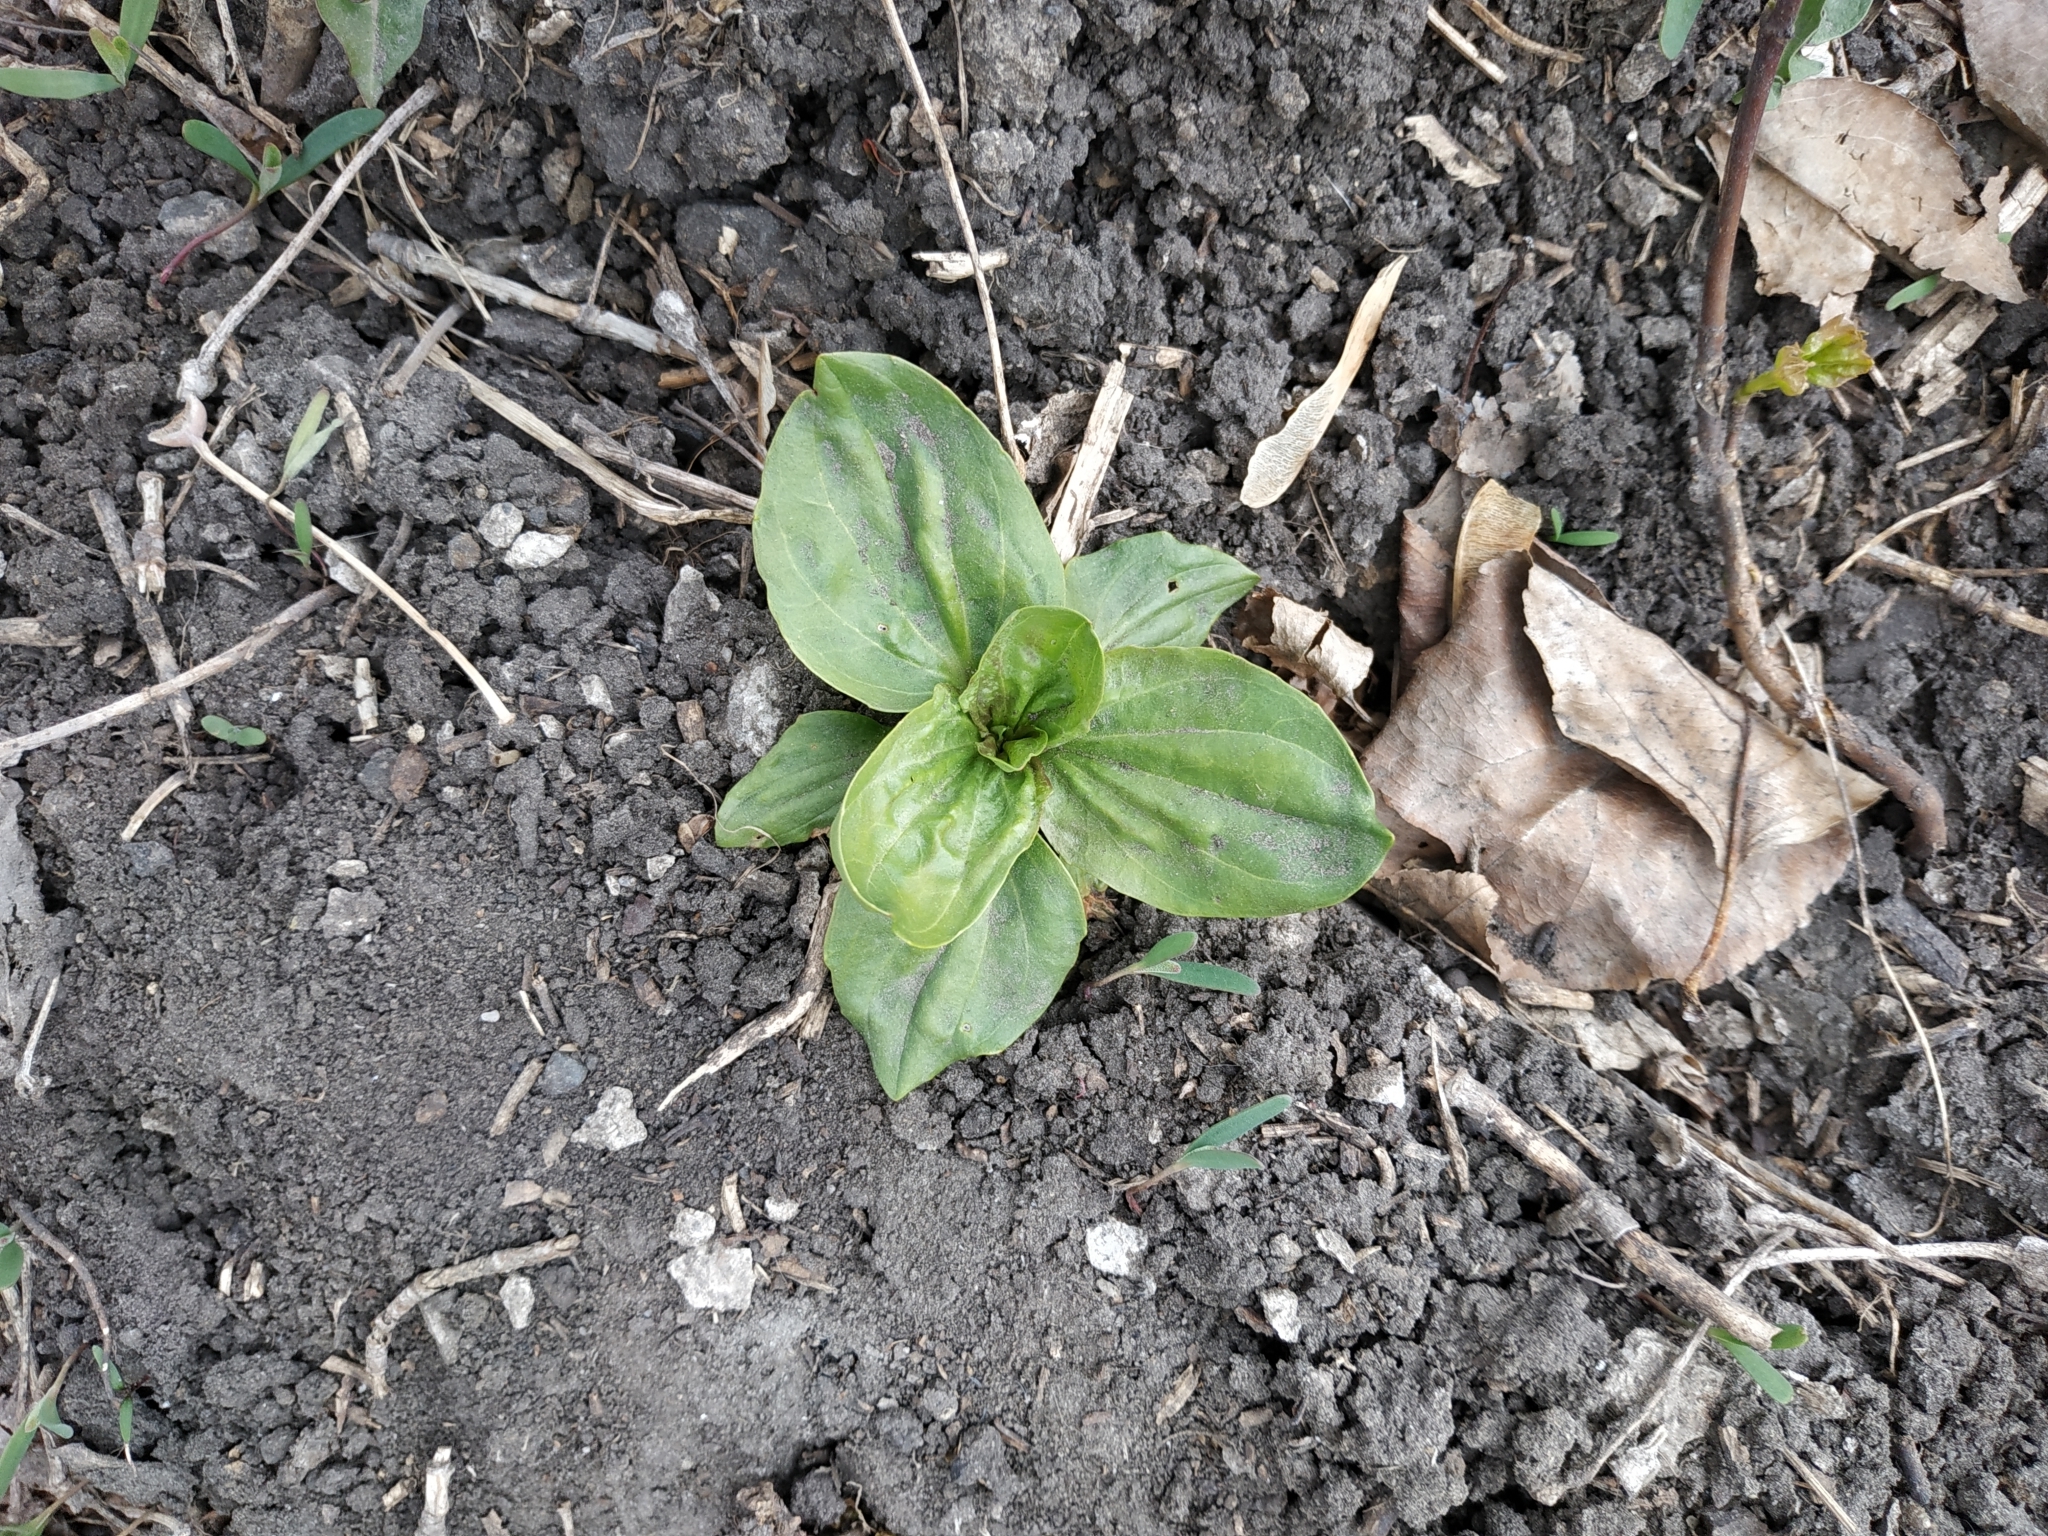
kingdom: Plantae
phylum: Tracheophyta
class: Magnoliopsida
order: Lamiales
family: Plantaginaceae
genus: Plantago
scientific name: Plantago major
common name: Common plantain
